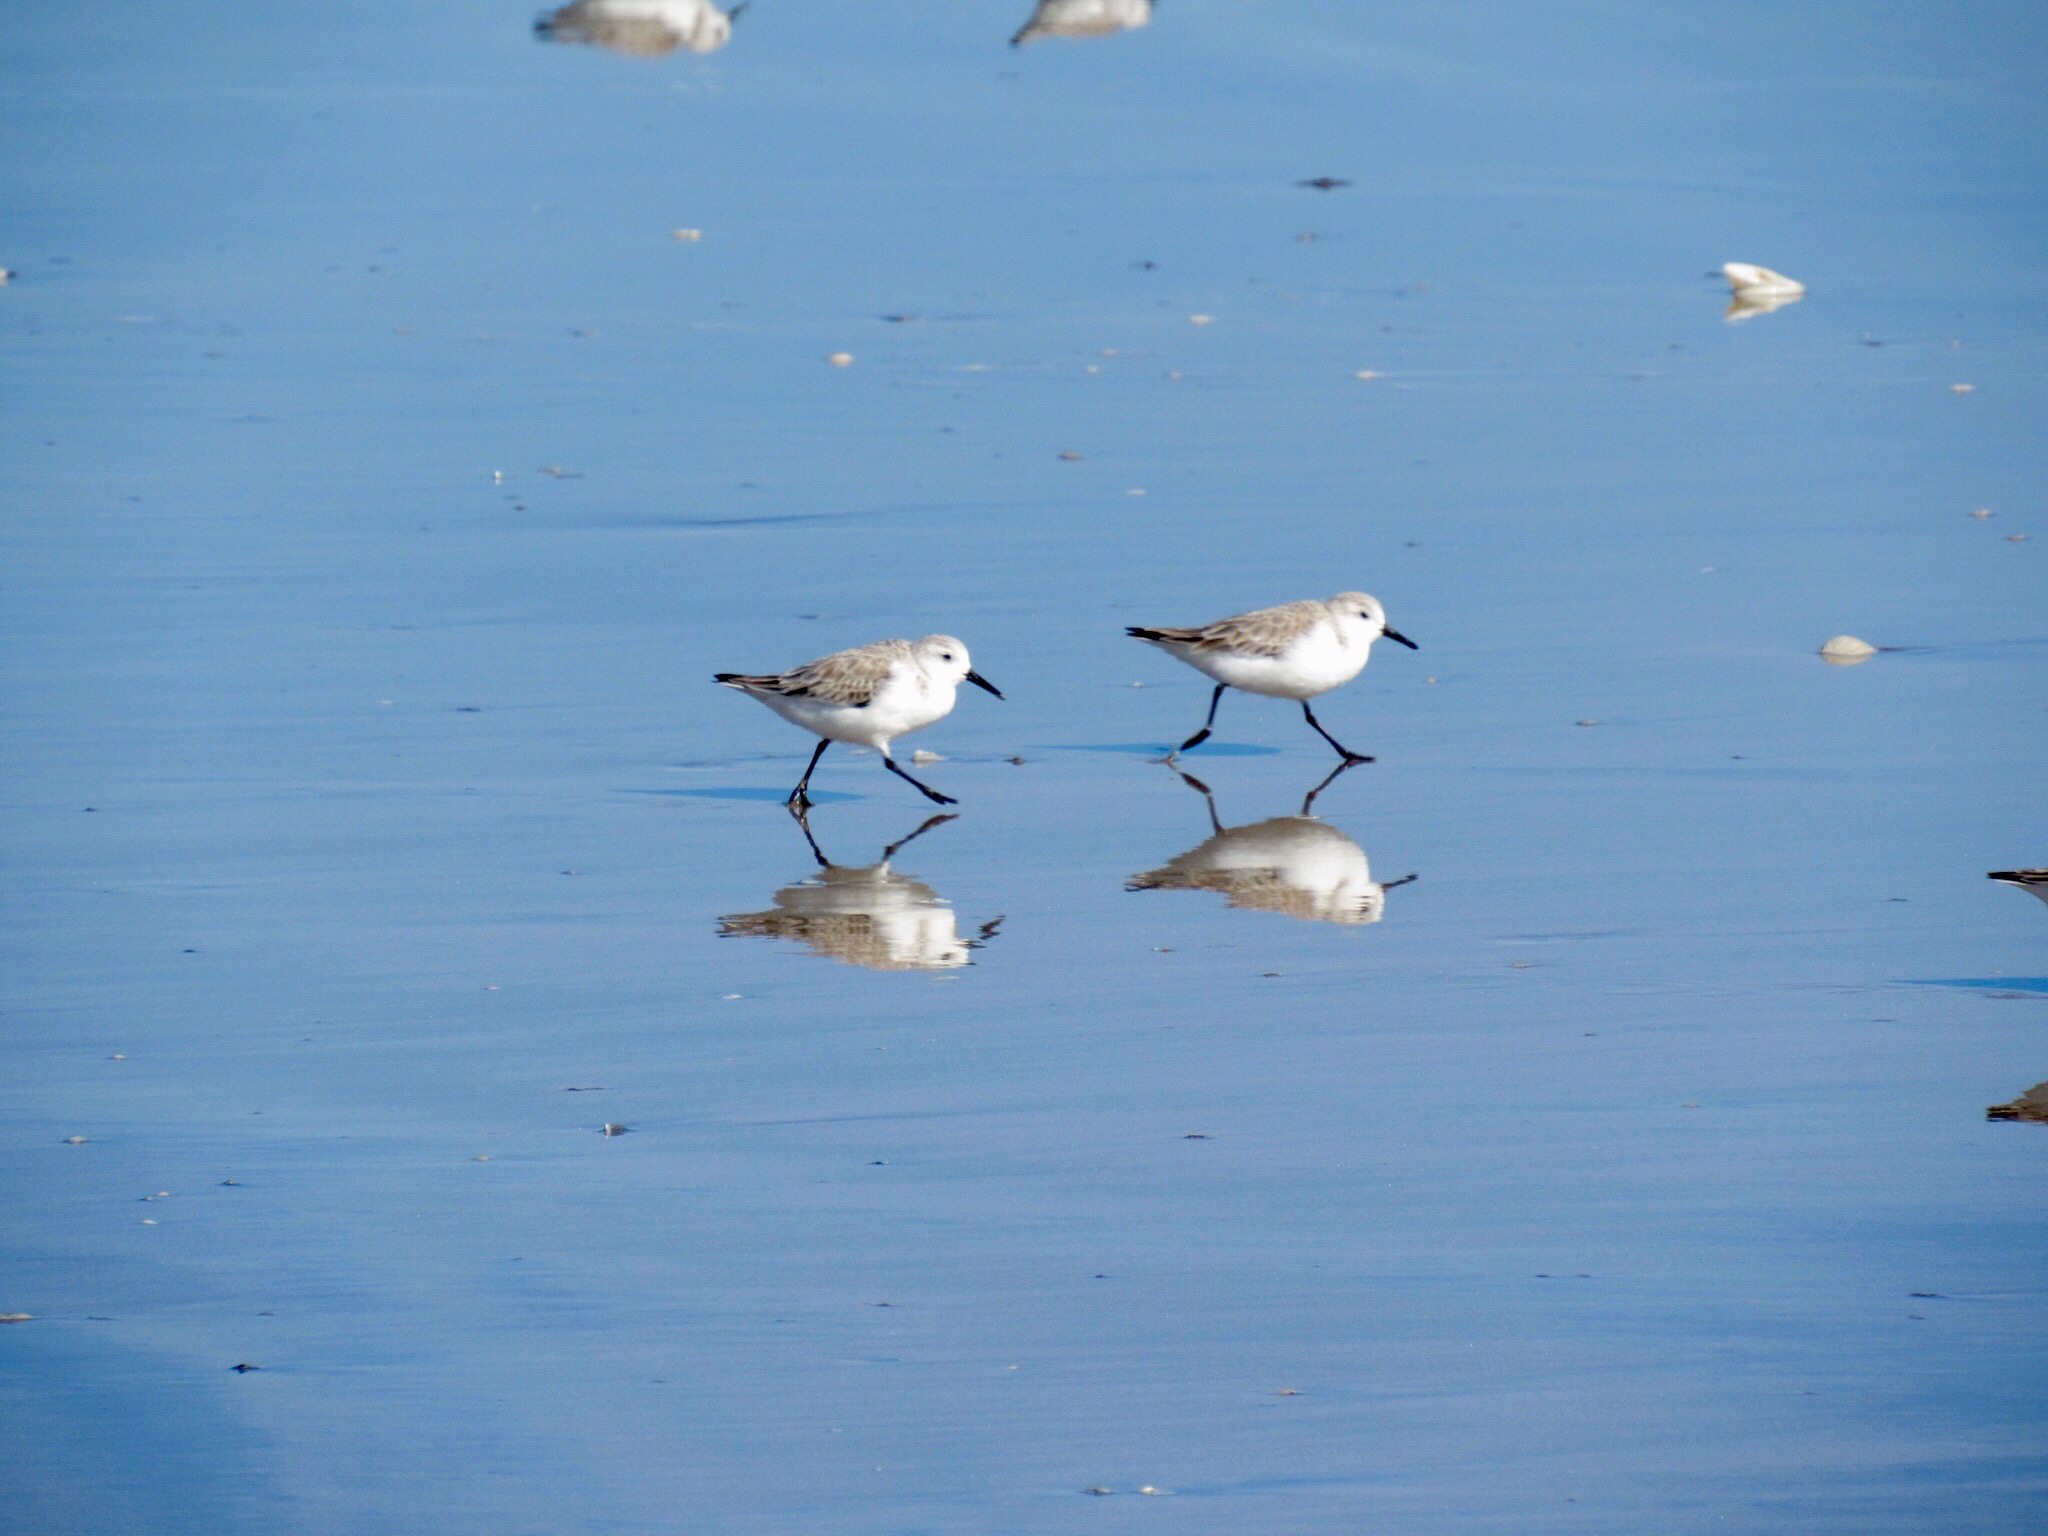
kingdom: Animalia
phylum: Chordata
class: Aves
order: Charadriiformes
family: Scolopacidae
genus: Calidris
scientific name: Calidris alba
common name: Sanderling
